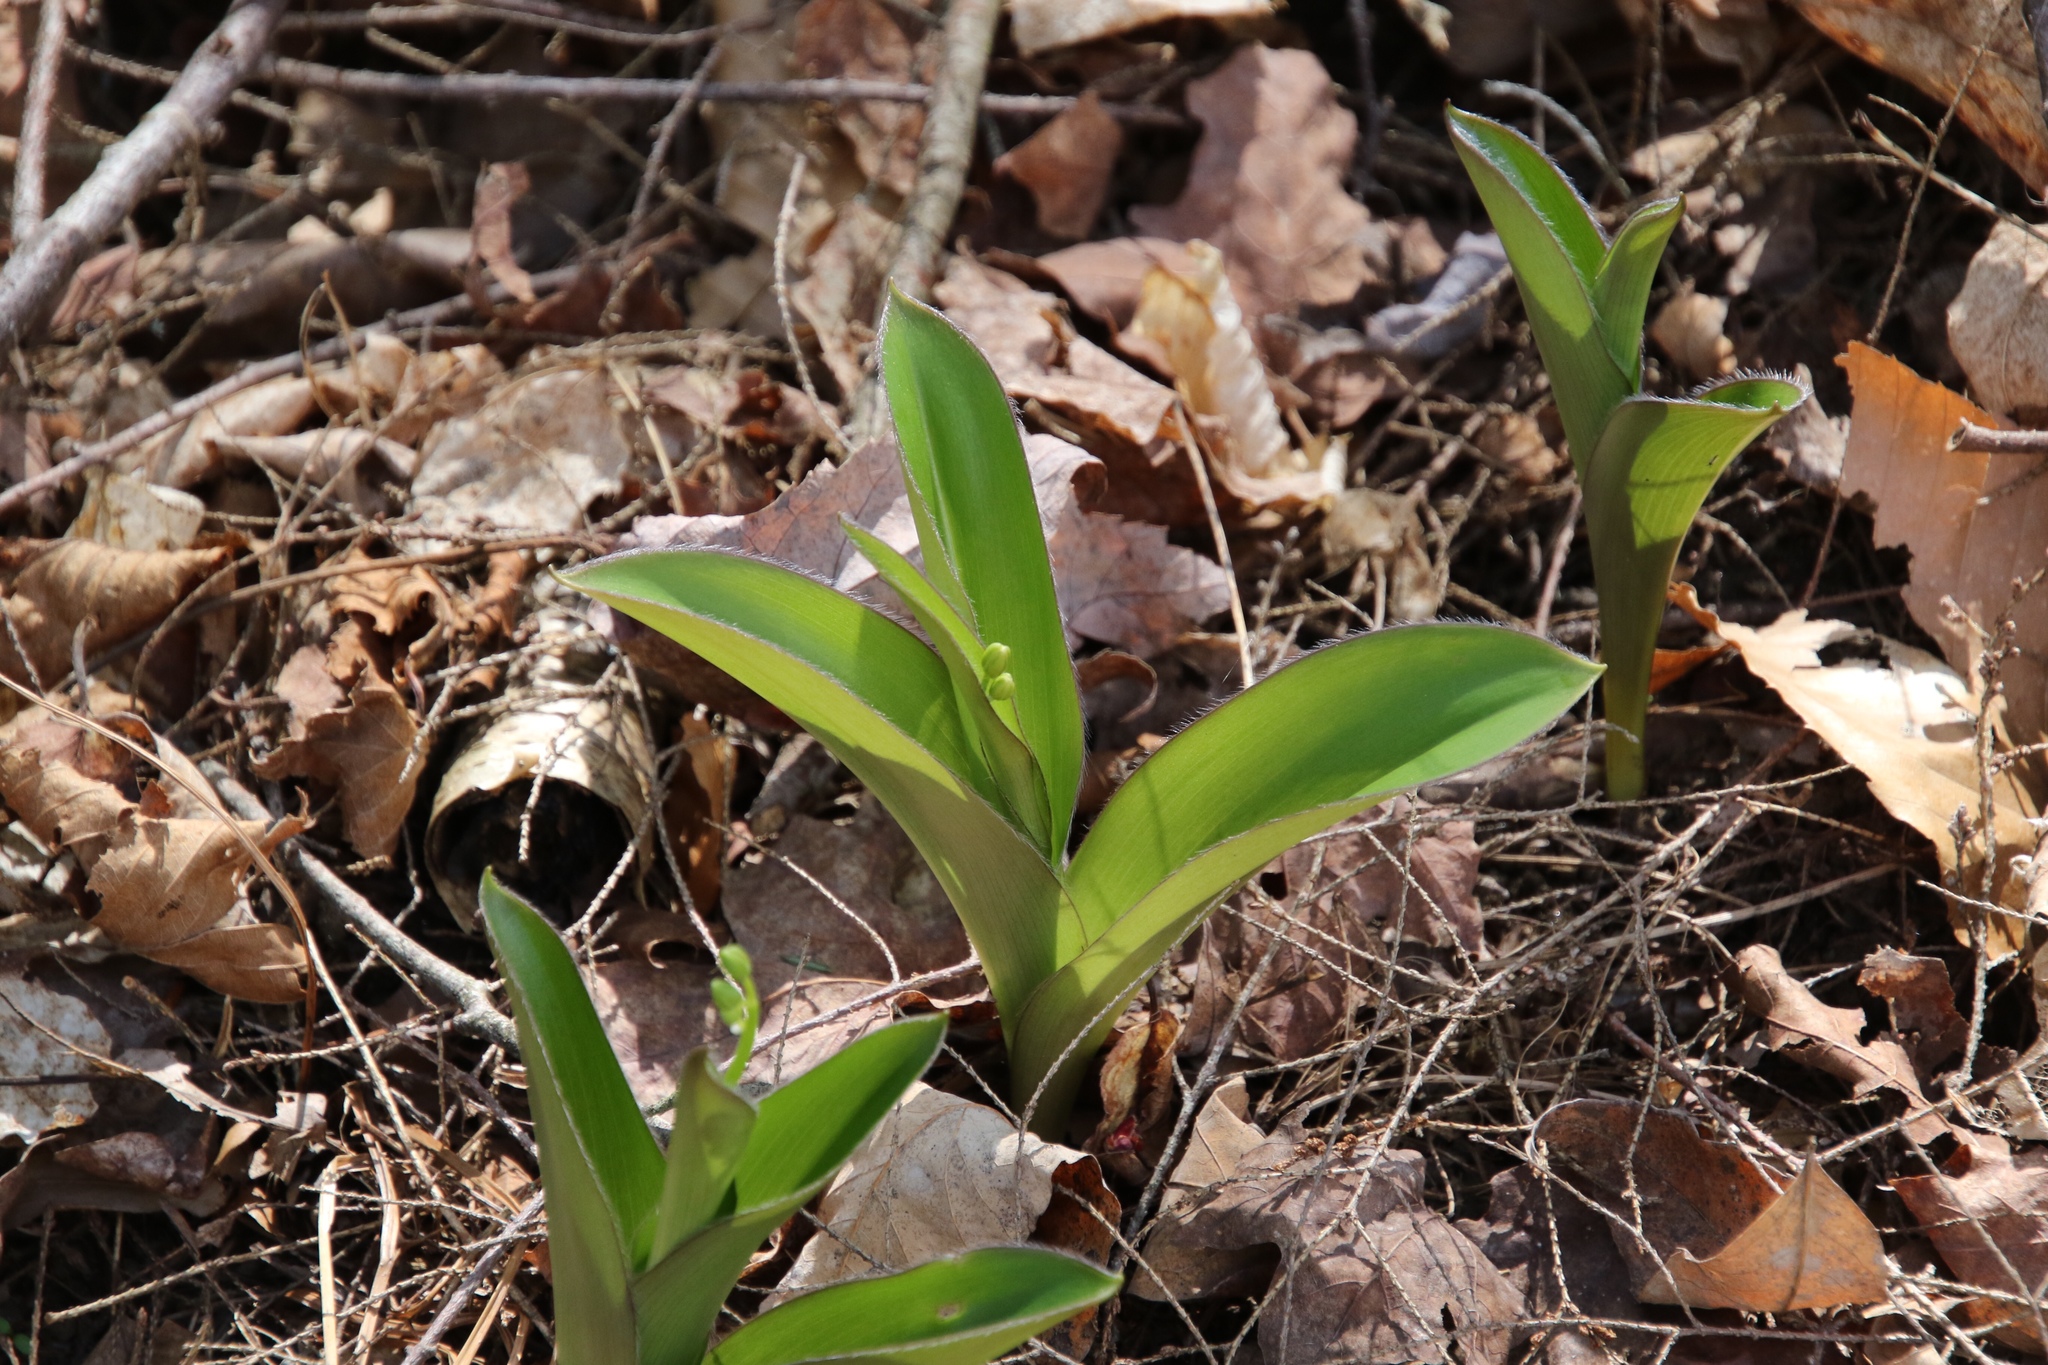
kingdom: Plantae
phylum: Tracheophyta
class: Liliopsida
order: Liliales
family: Liliaceae
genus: Clintonia
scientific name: Clintonia borealis
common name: Yellow clintonia
